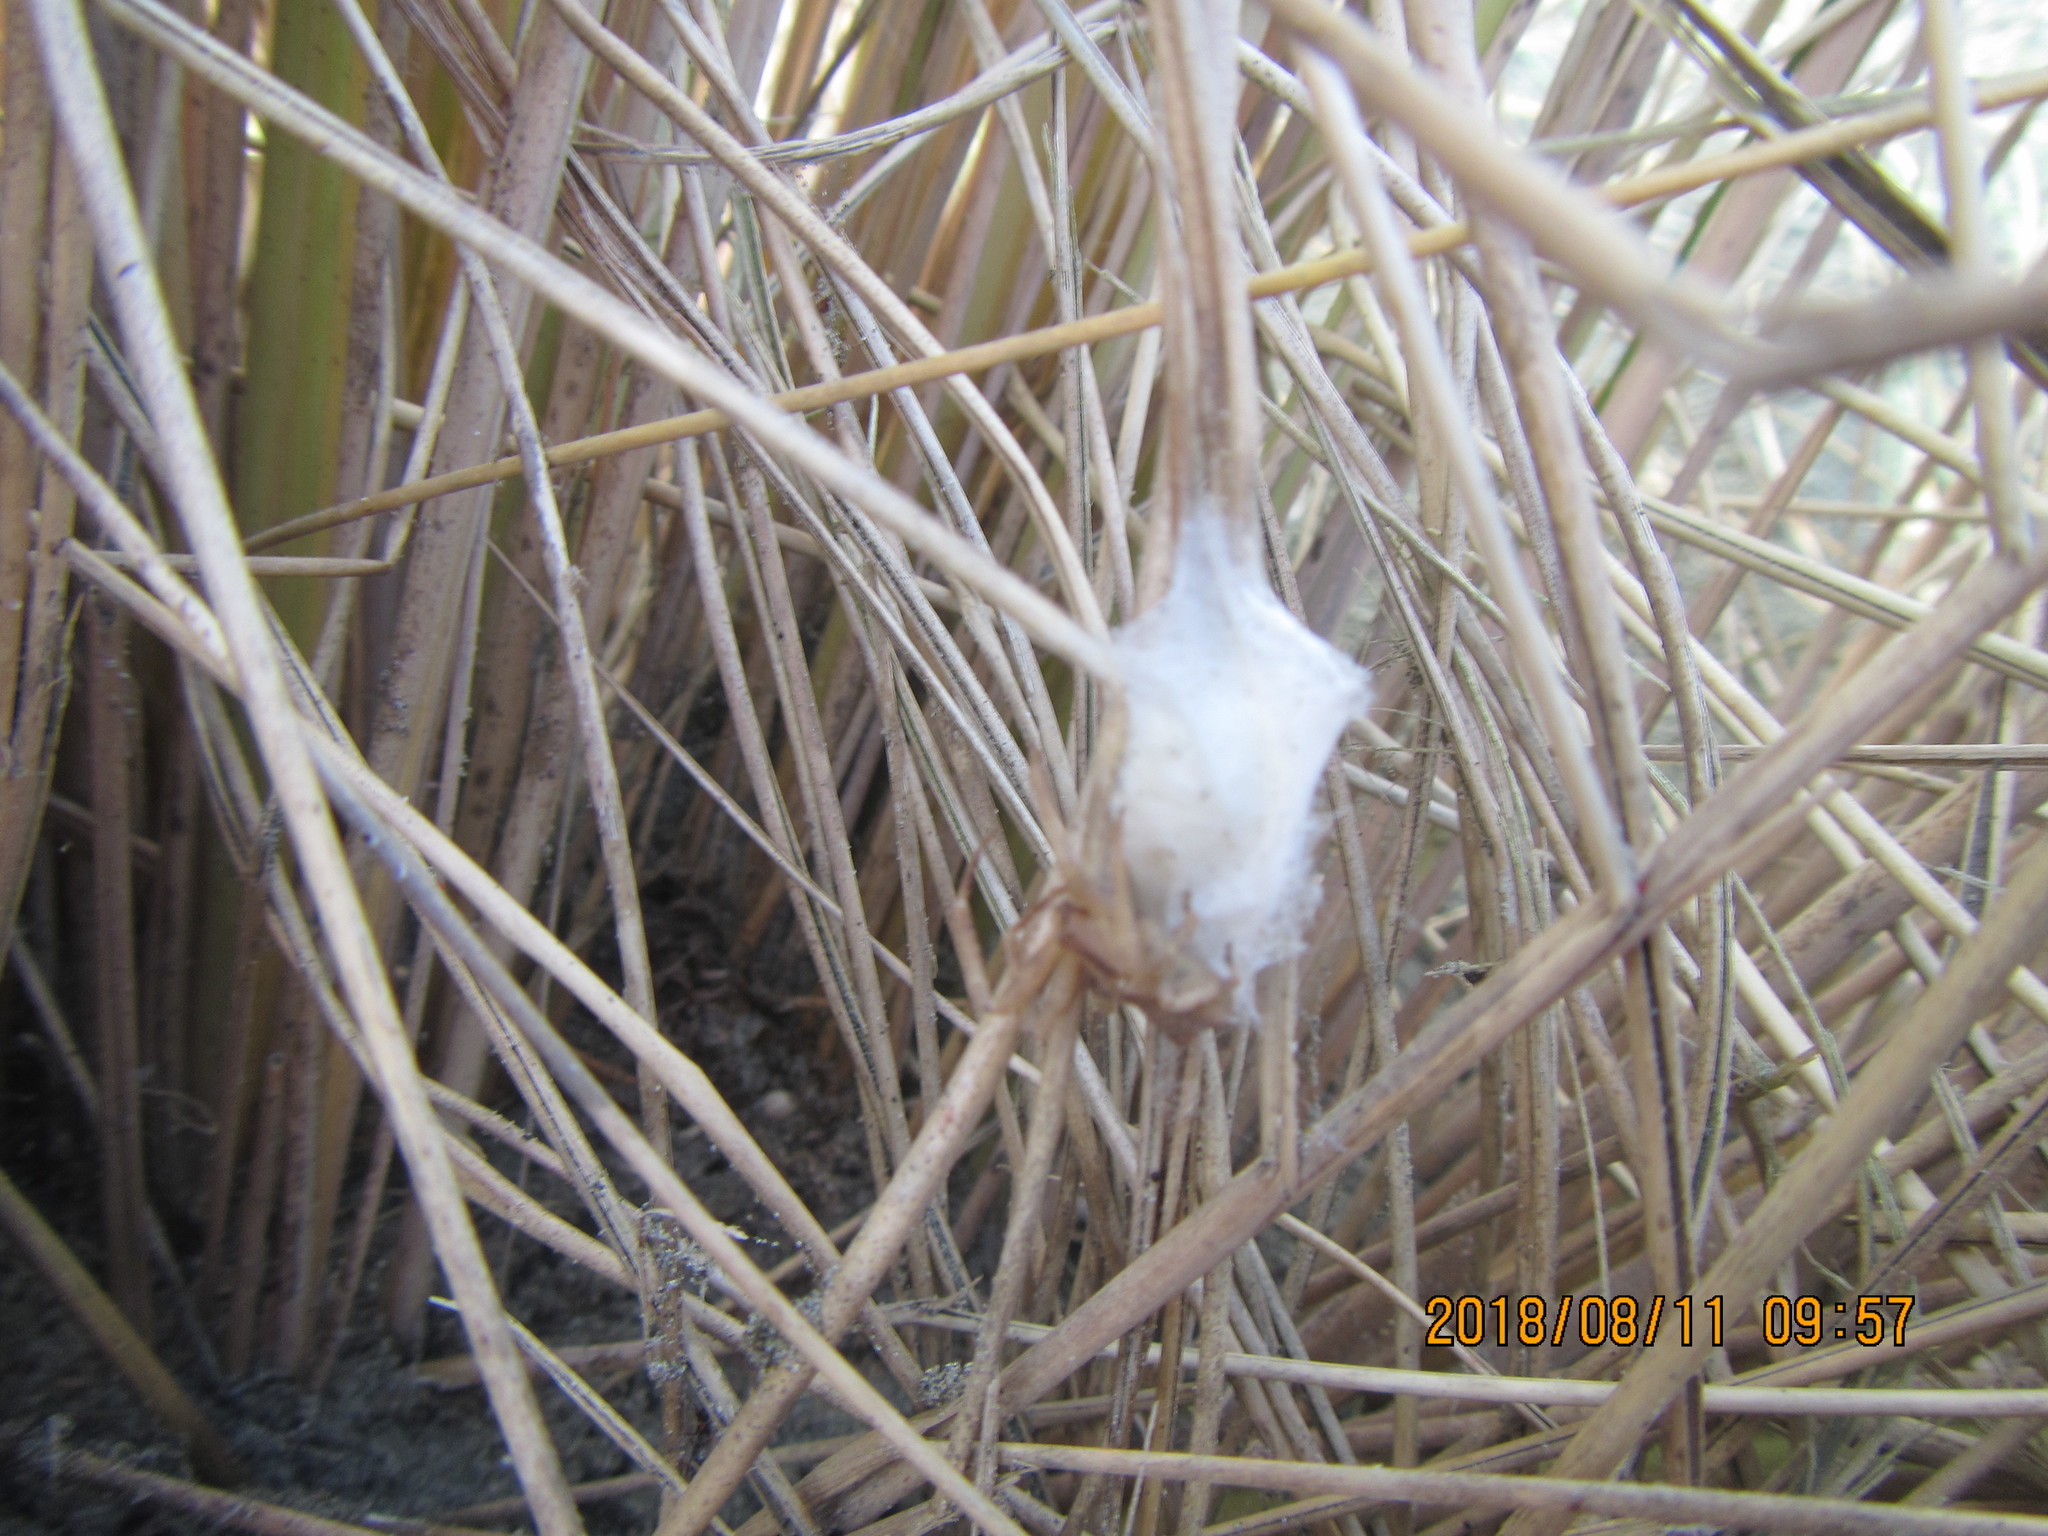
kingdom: Animalia
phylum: Arthropoda
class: Arachnida
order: Araneae
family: Thomisidae
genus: Sidymella
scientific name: Sidymella trapezia
